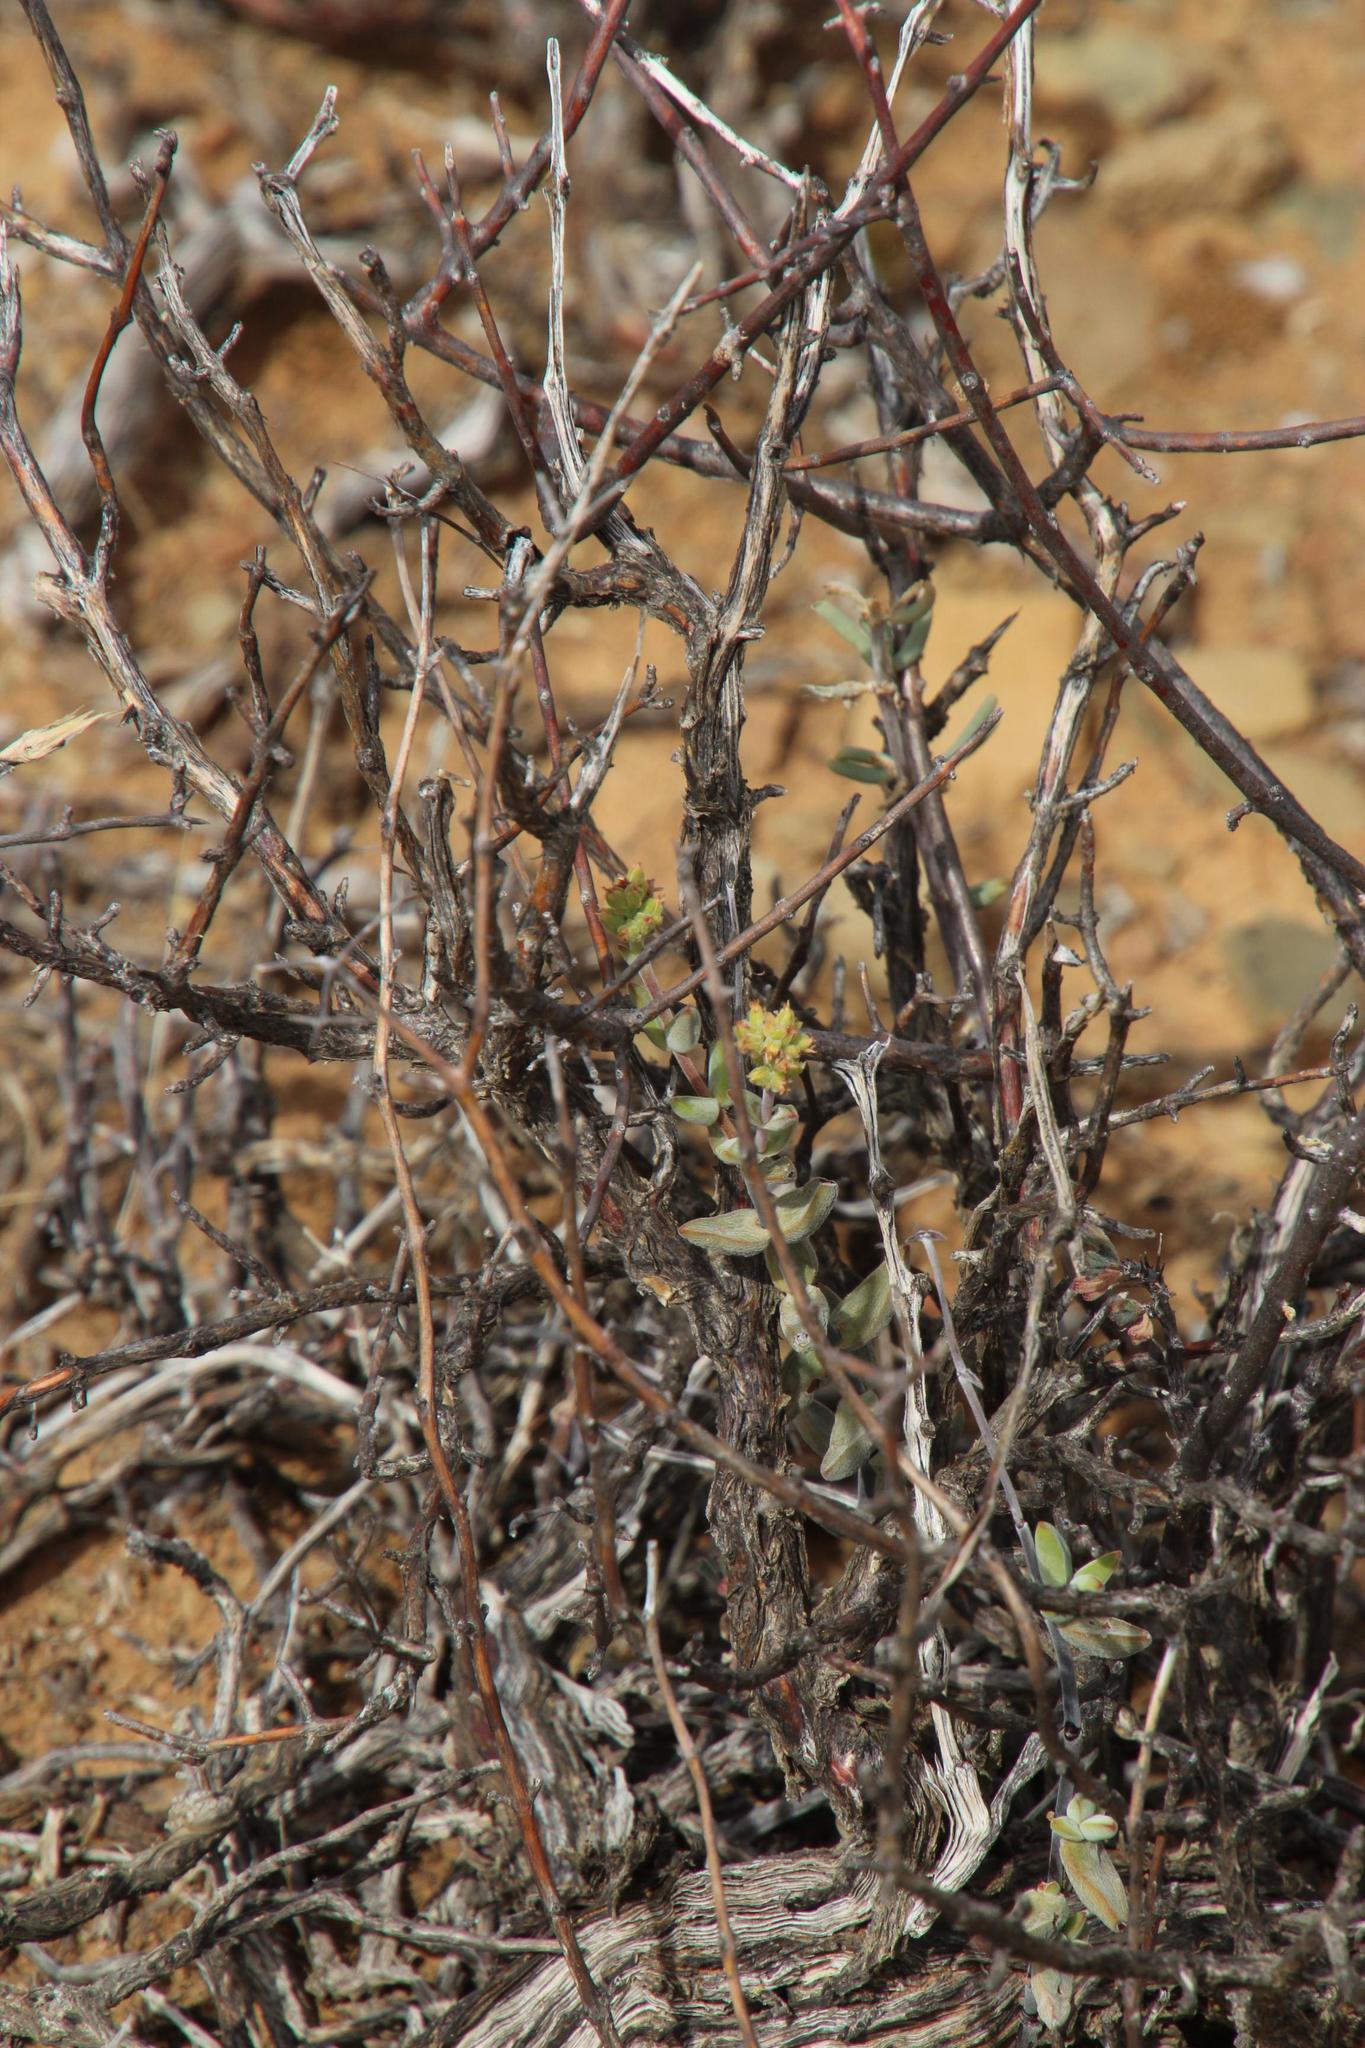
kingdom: Plantae
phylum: Tracheophyta
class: Magnoliopsida
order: Saxifragales
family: Crassulaceae
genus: Crassula
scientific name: Crassula subaphylla
